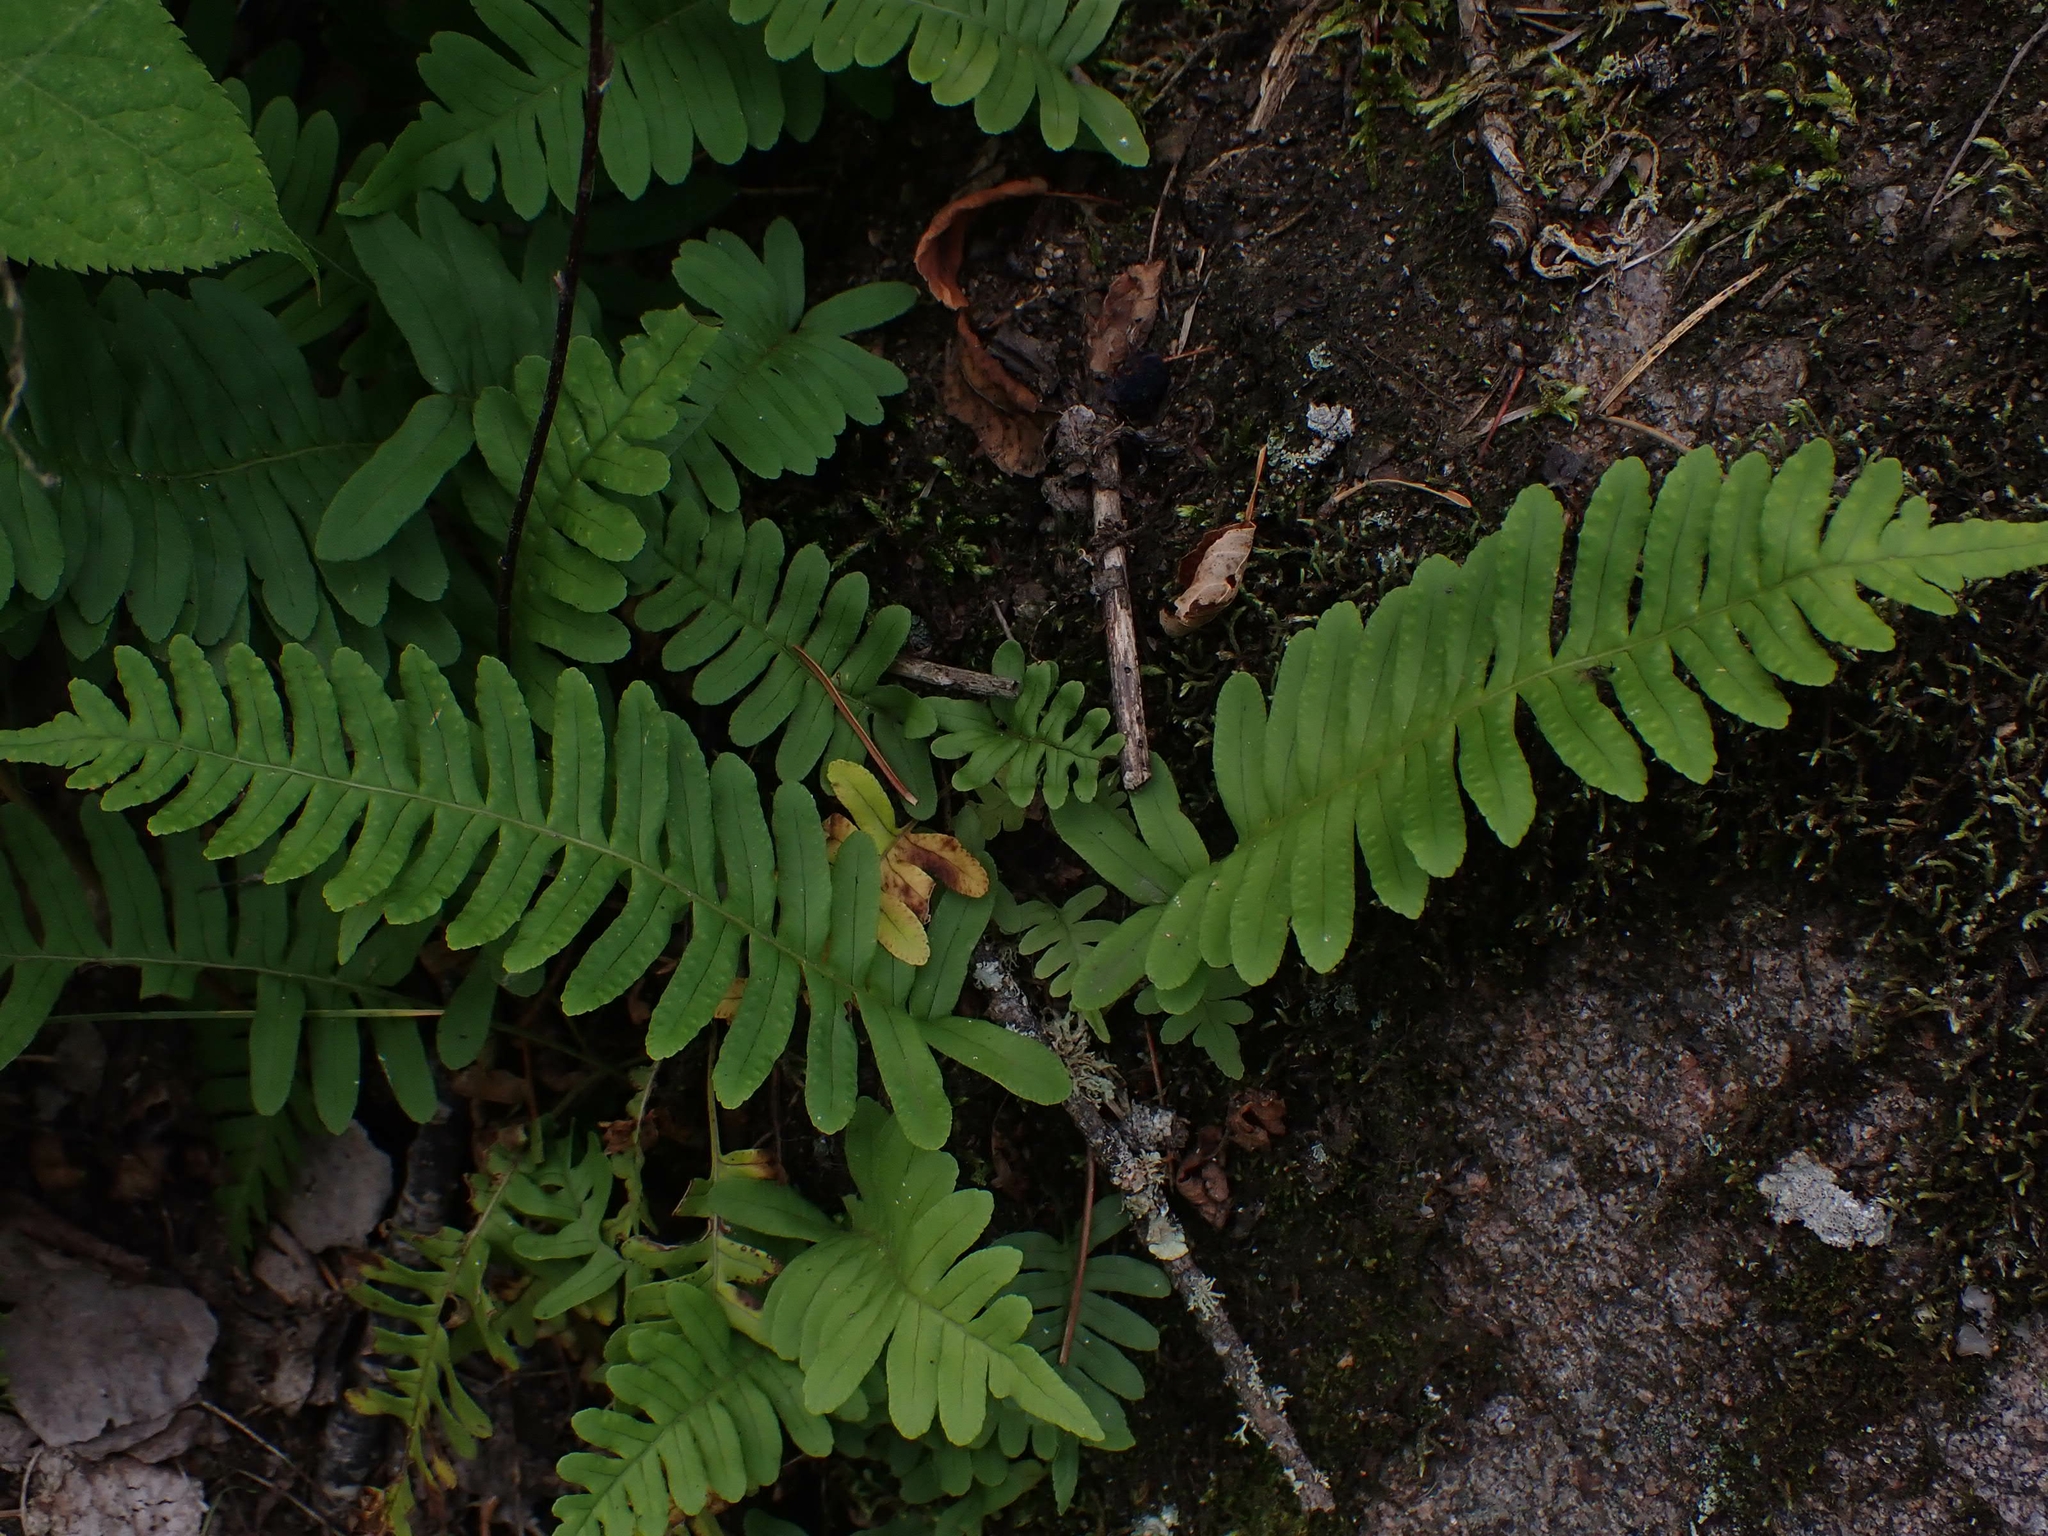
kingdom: Plantae
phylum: Tracheophyta
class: Polypodiopsida
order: Polypodiales
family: Polypodiaceae
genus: Polypodium
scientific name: Polypodium virginianum
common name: American wall fern
